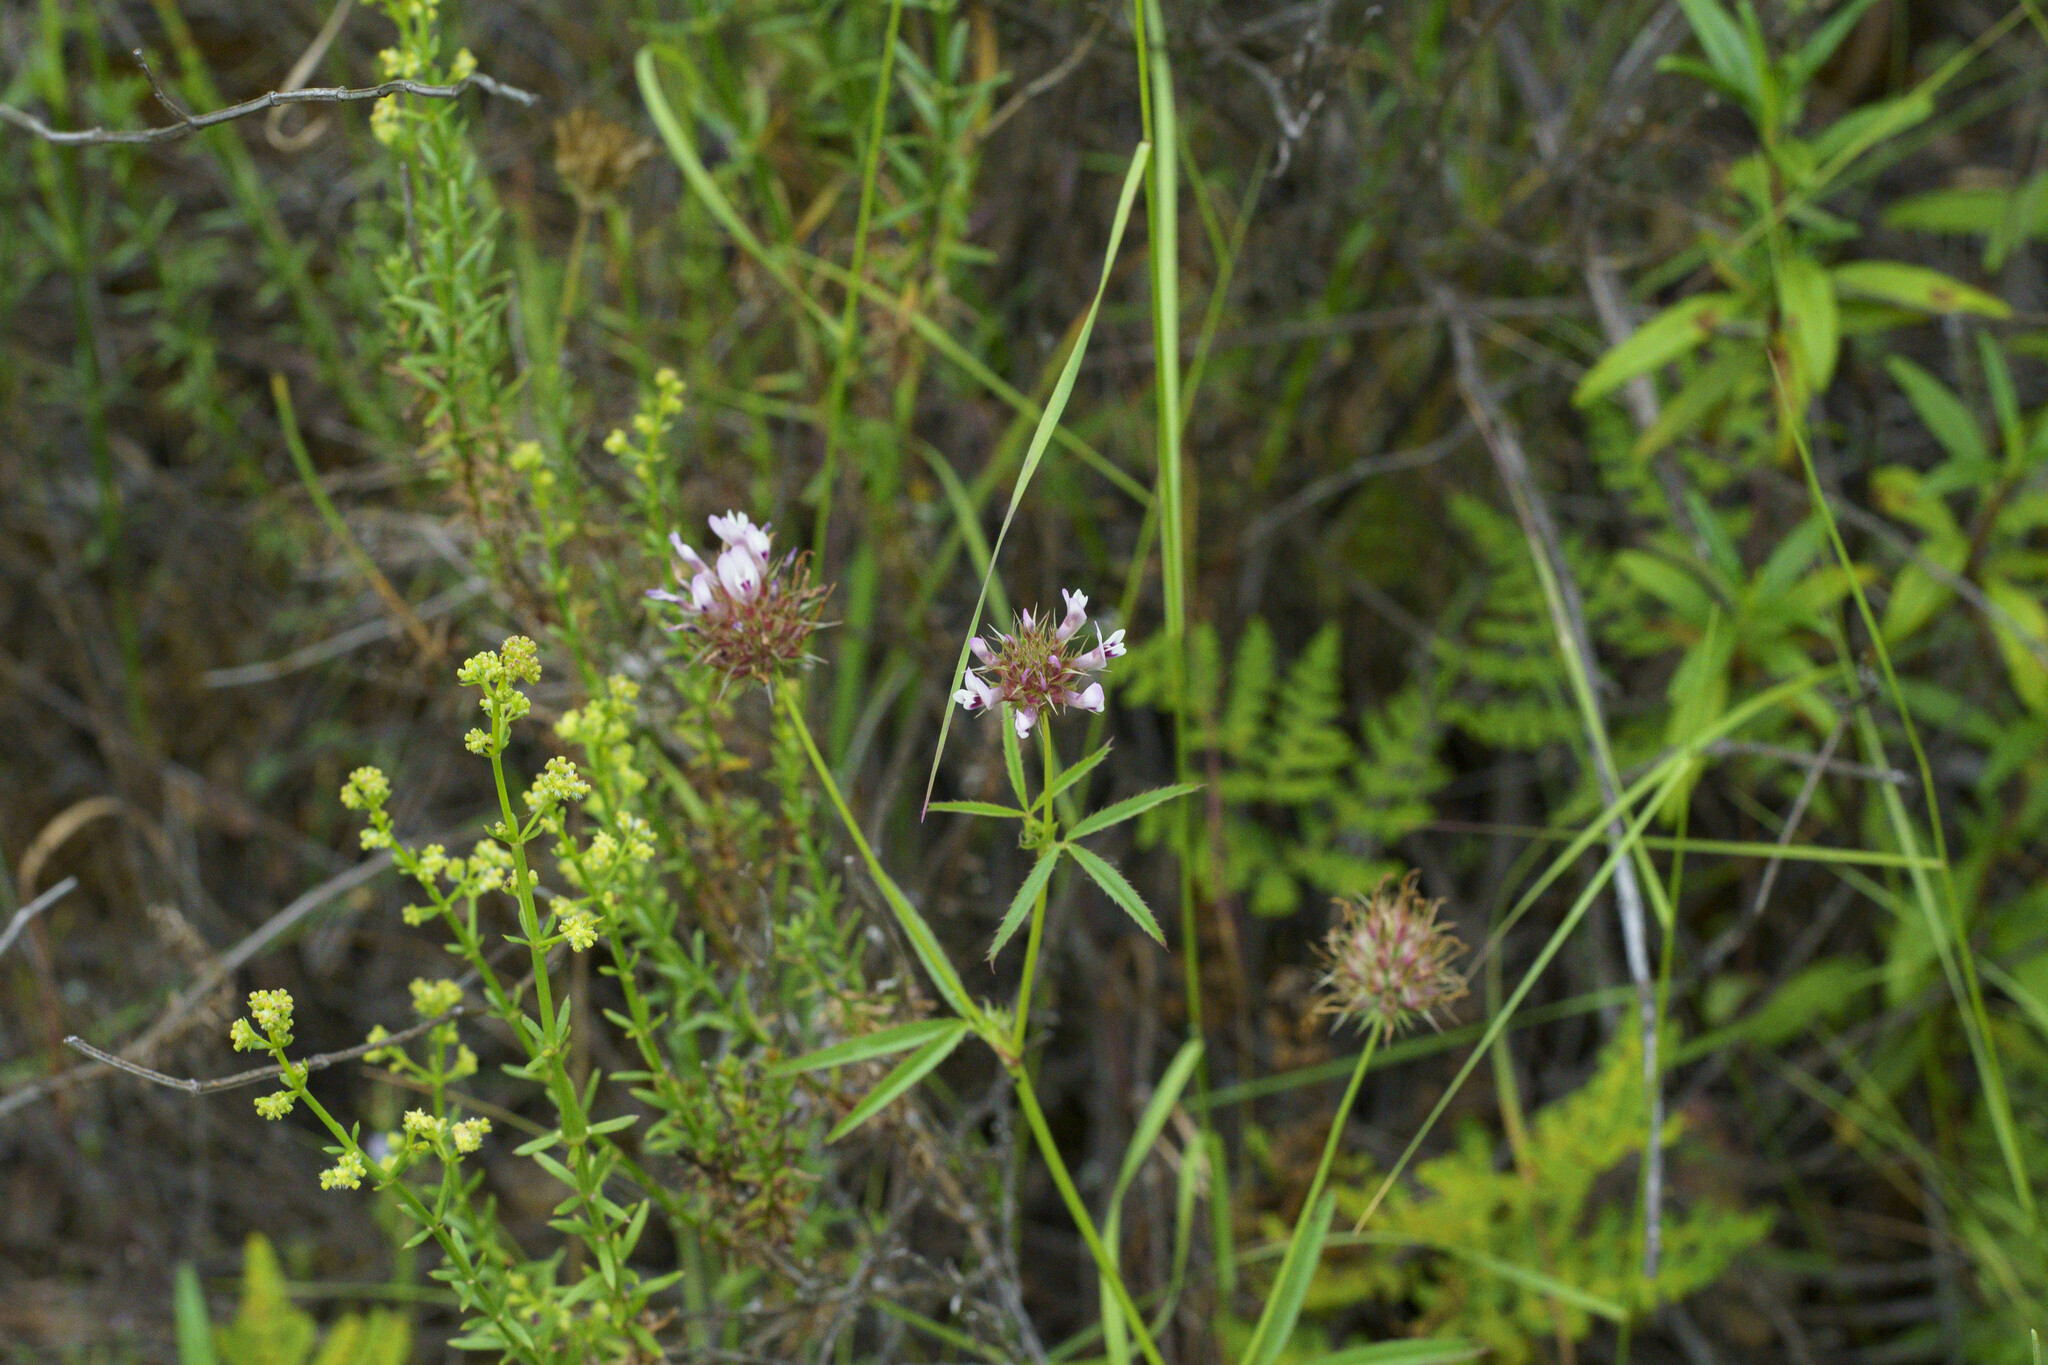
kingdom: Plantae
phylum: Tracheophyta
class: Magnoliopsida
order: Fabales
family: Fabaceae
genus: Trifolium
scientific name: Trifolium willdenovii
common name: Tomcat clover
